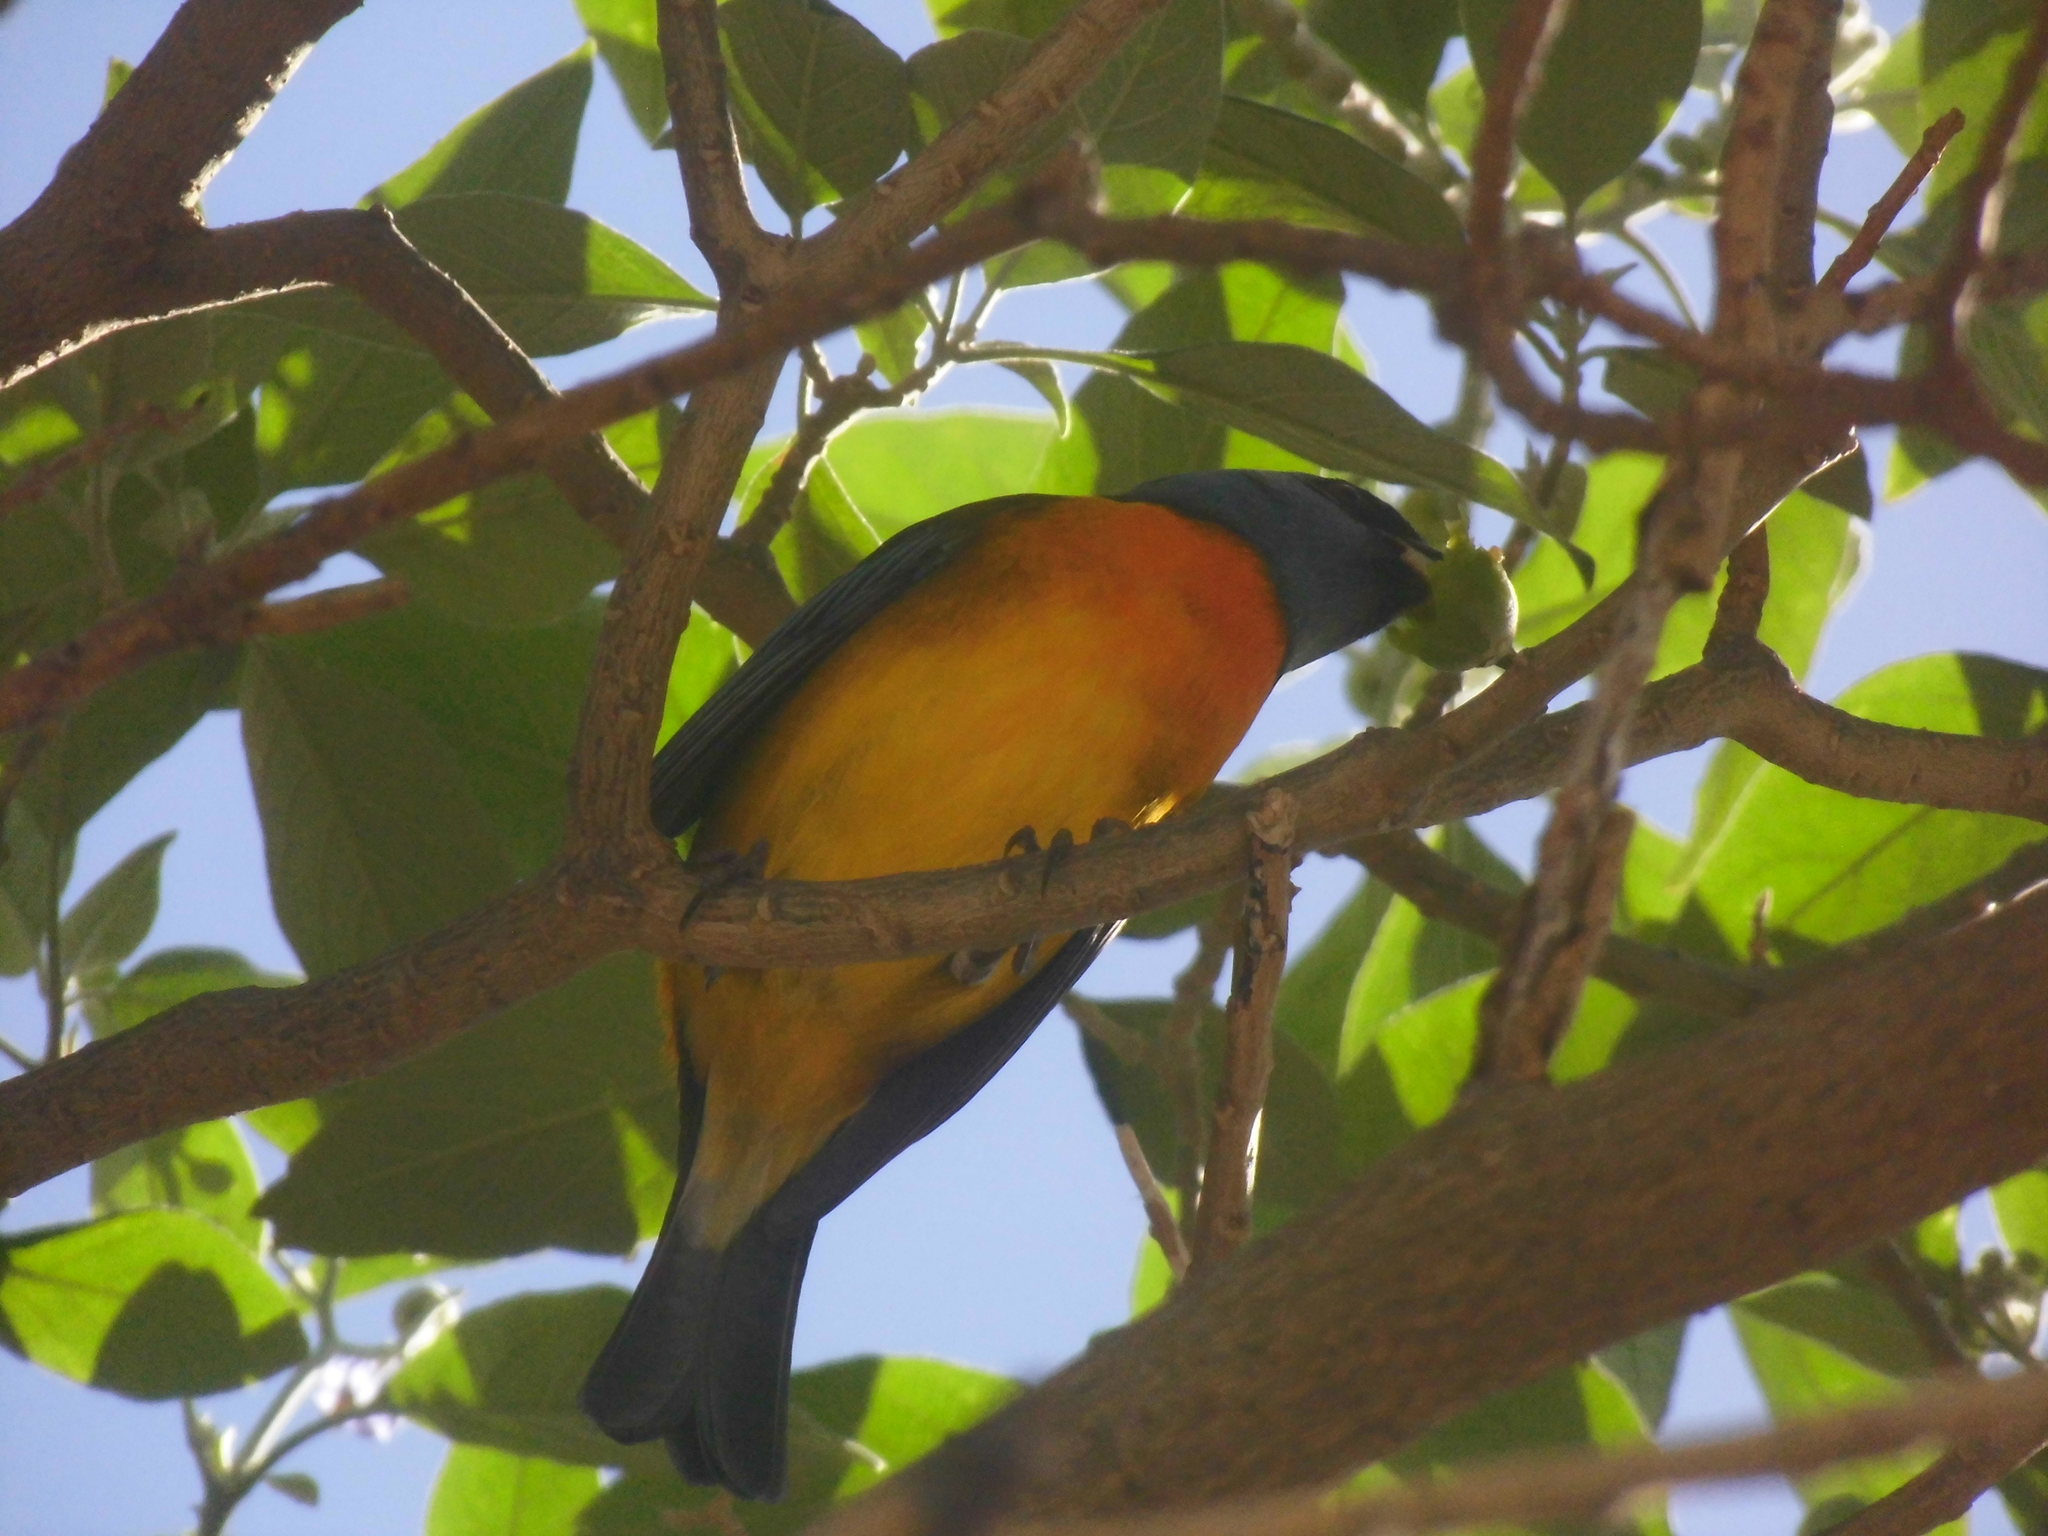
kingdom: Animalia
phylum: Chordata
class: Aves
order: Passeriformes
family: Thraupidae
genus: Rauenia
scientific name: Rauenia bonariensis
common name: Blue-and-yellow tanager
